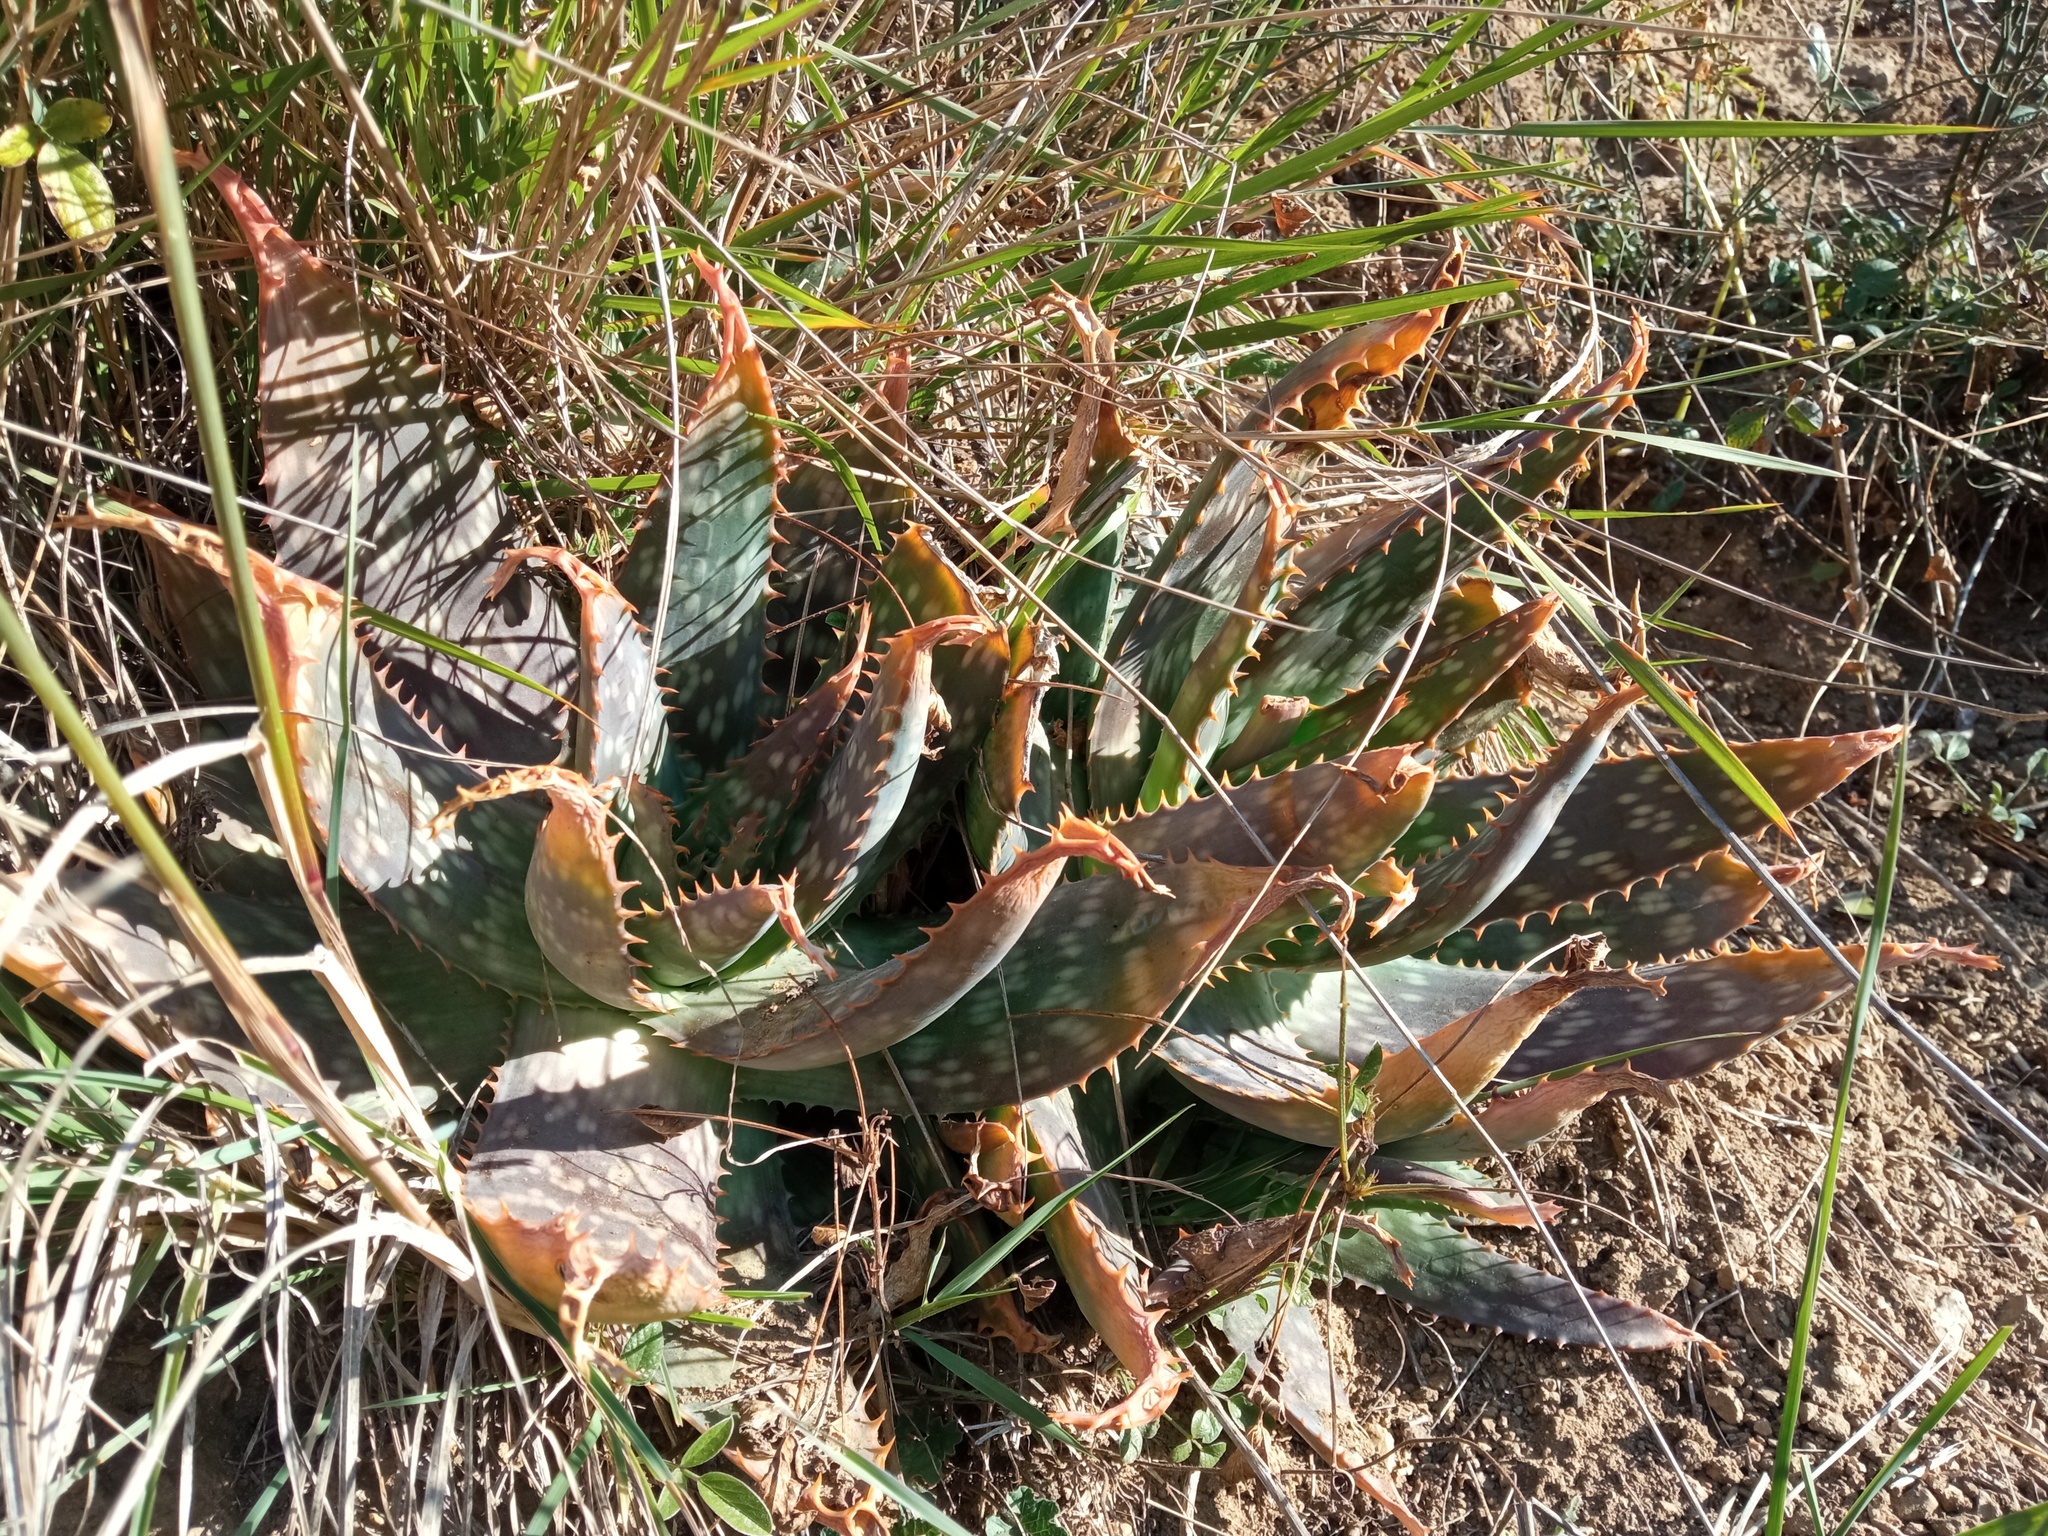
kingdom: Plantae
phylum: Tracheophyta
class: Liliopsida
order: Asparagales
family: Asphodelaceae
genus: Aloe
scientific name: Aloe maculata
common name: Broadleaf aloe
